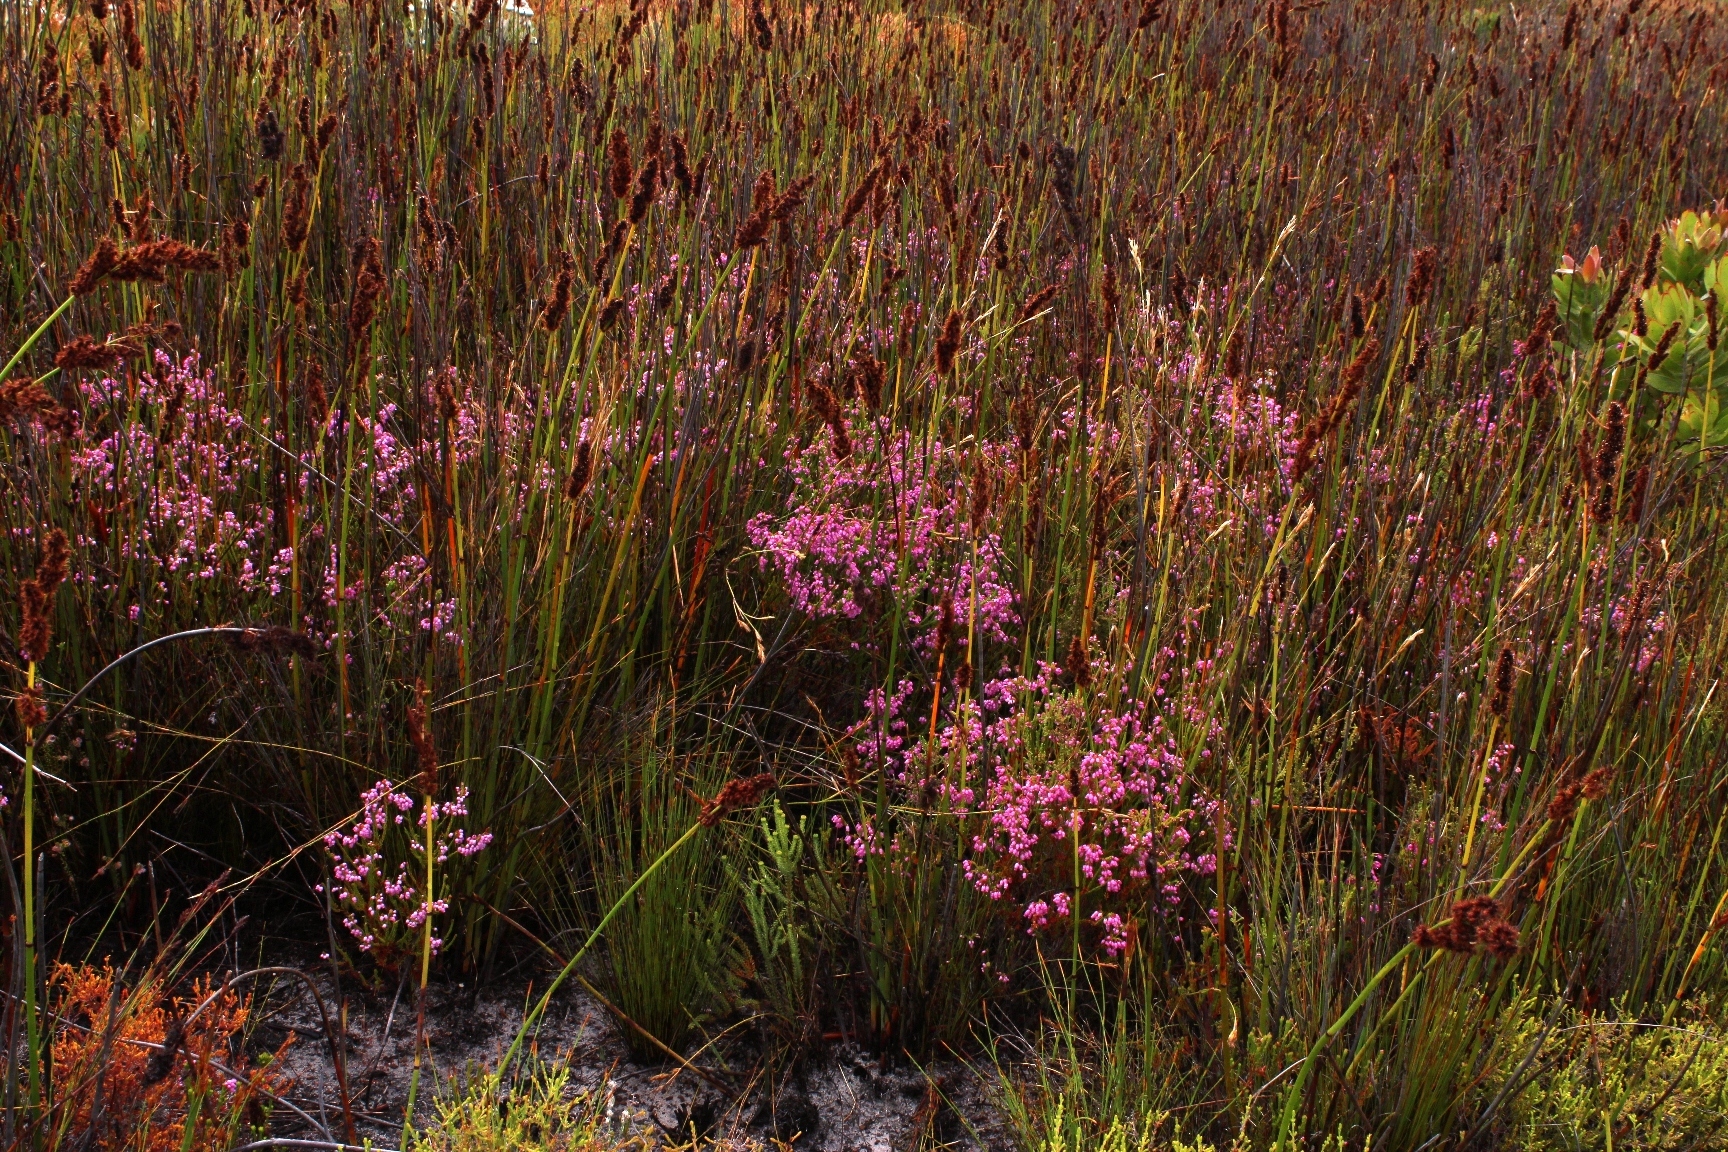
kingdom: Plantae
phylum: Tracheophyta
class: Magnoliopsida
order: Ericales
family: Ericaceae
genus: Erica
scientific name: Erica laeta
